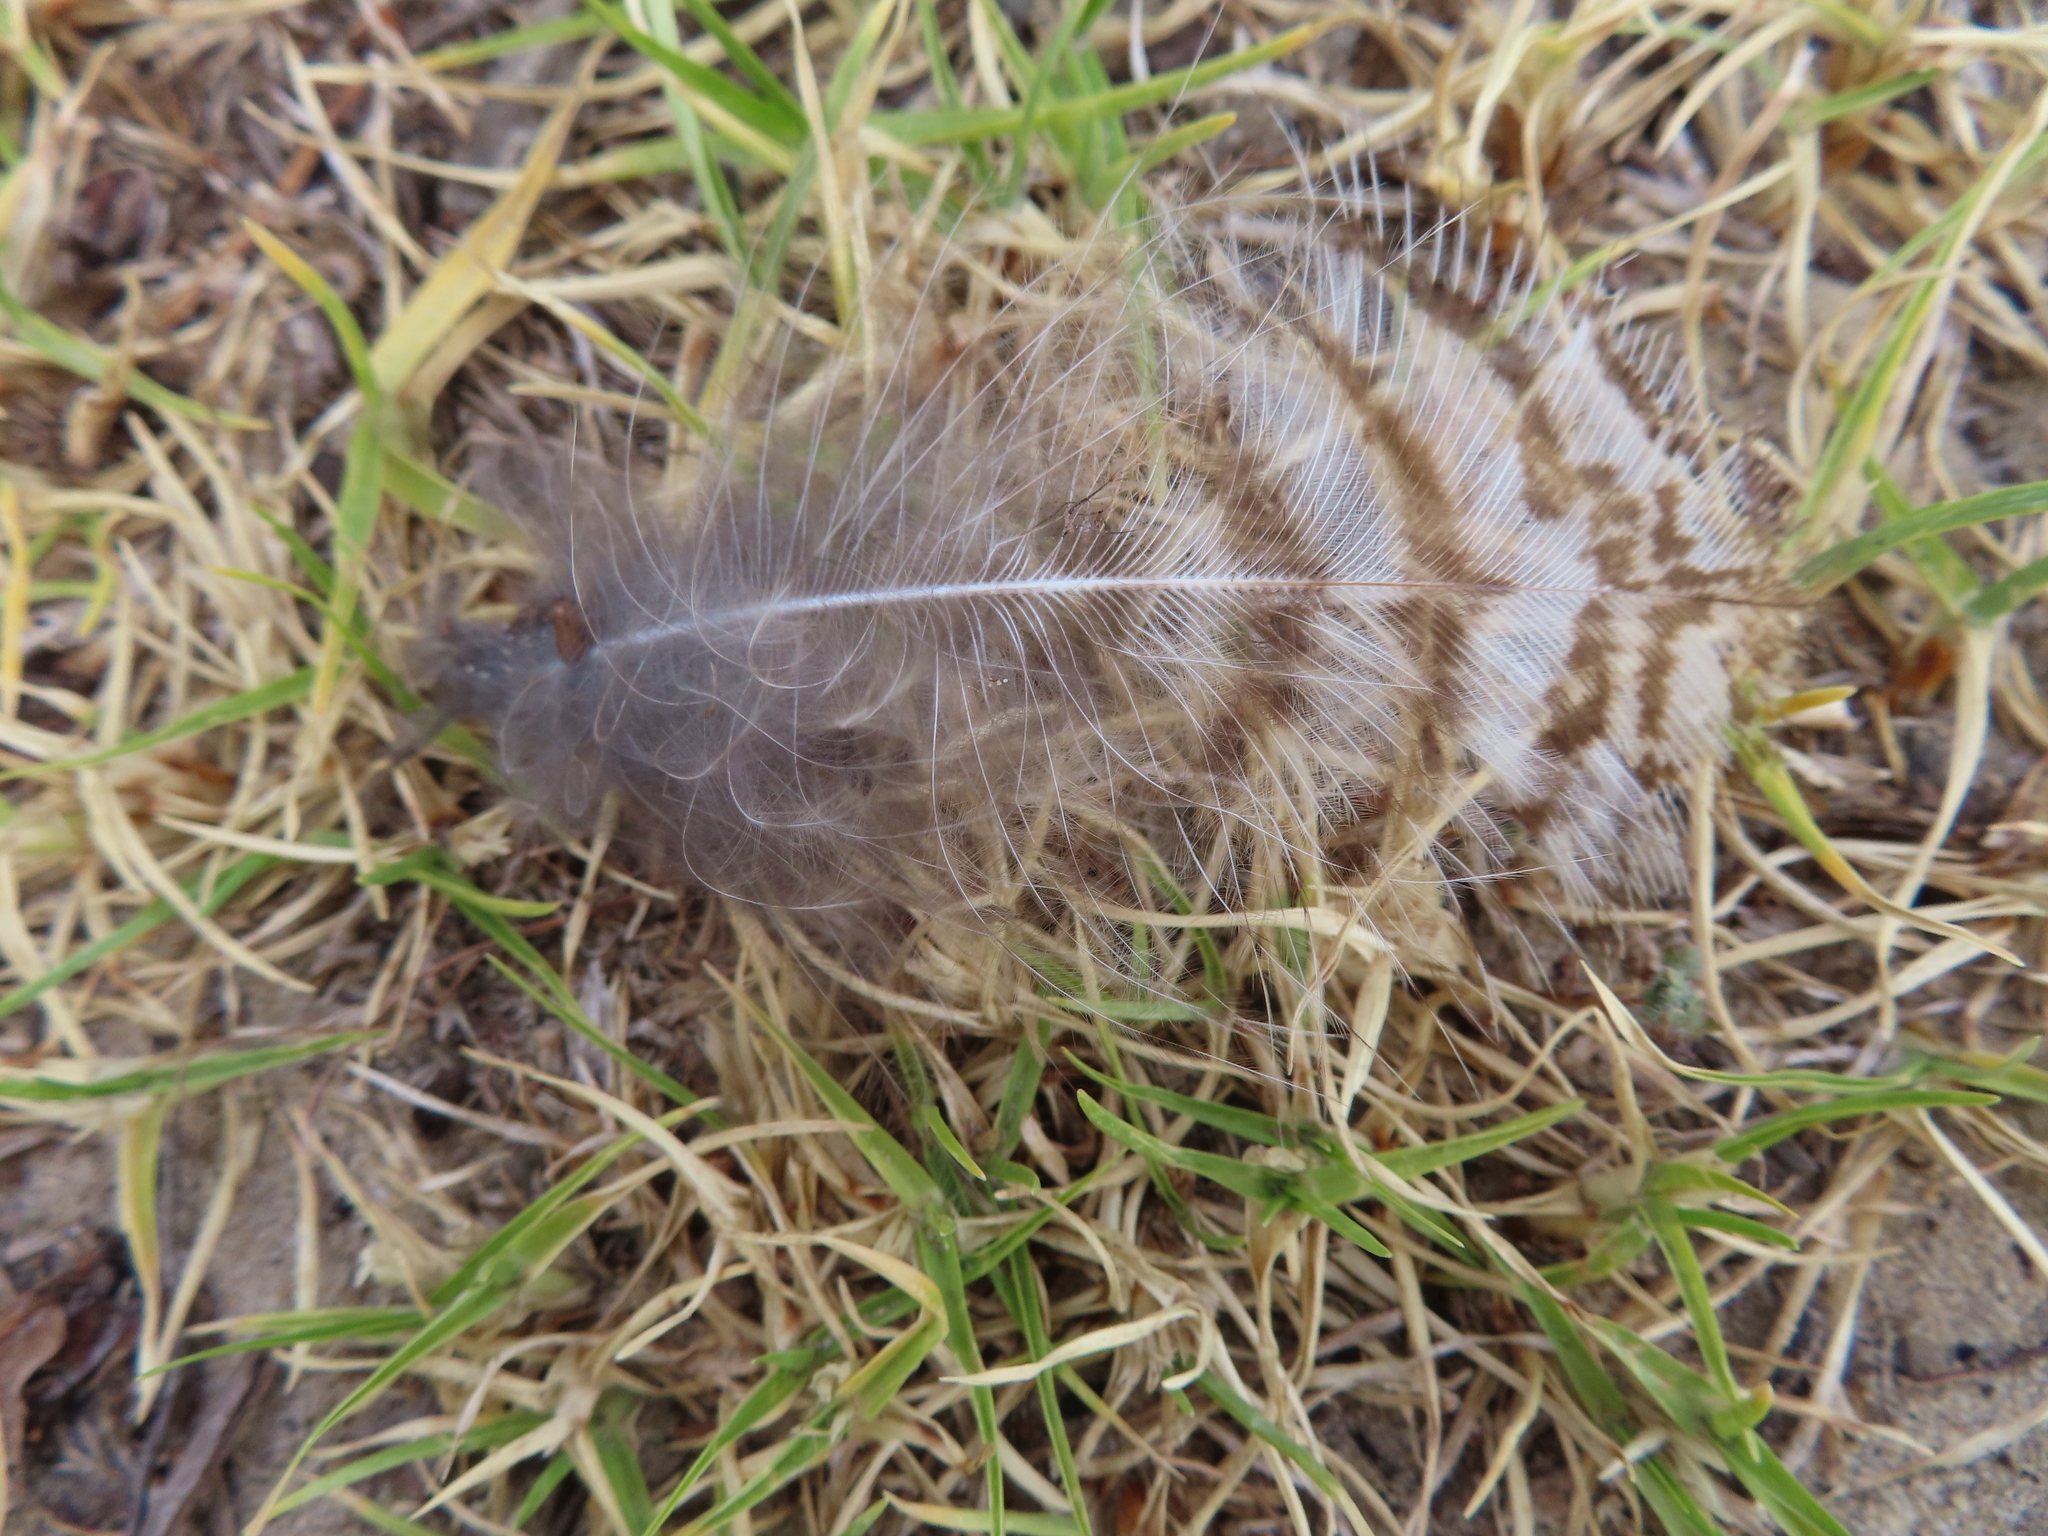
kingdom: Animalia
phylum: Chordata
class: Aves
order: Strigiformes
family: Strigidae
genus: Bubo
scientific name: Bubo africanus
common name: Spotted eagle-owl
